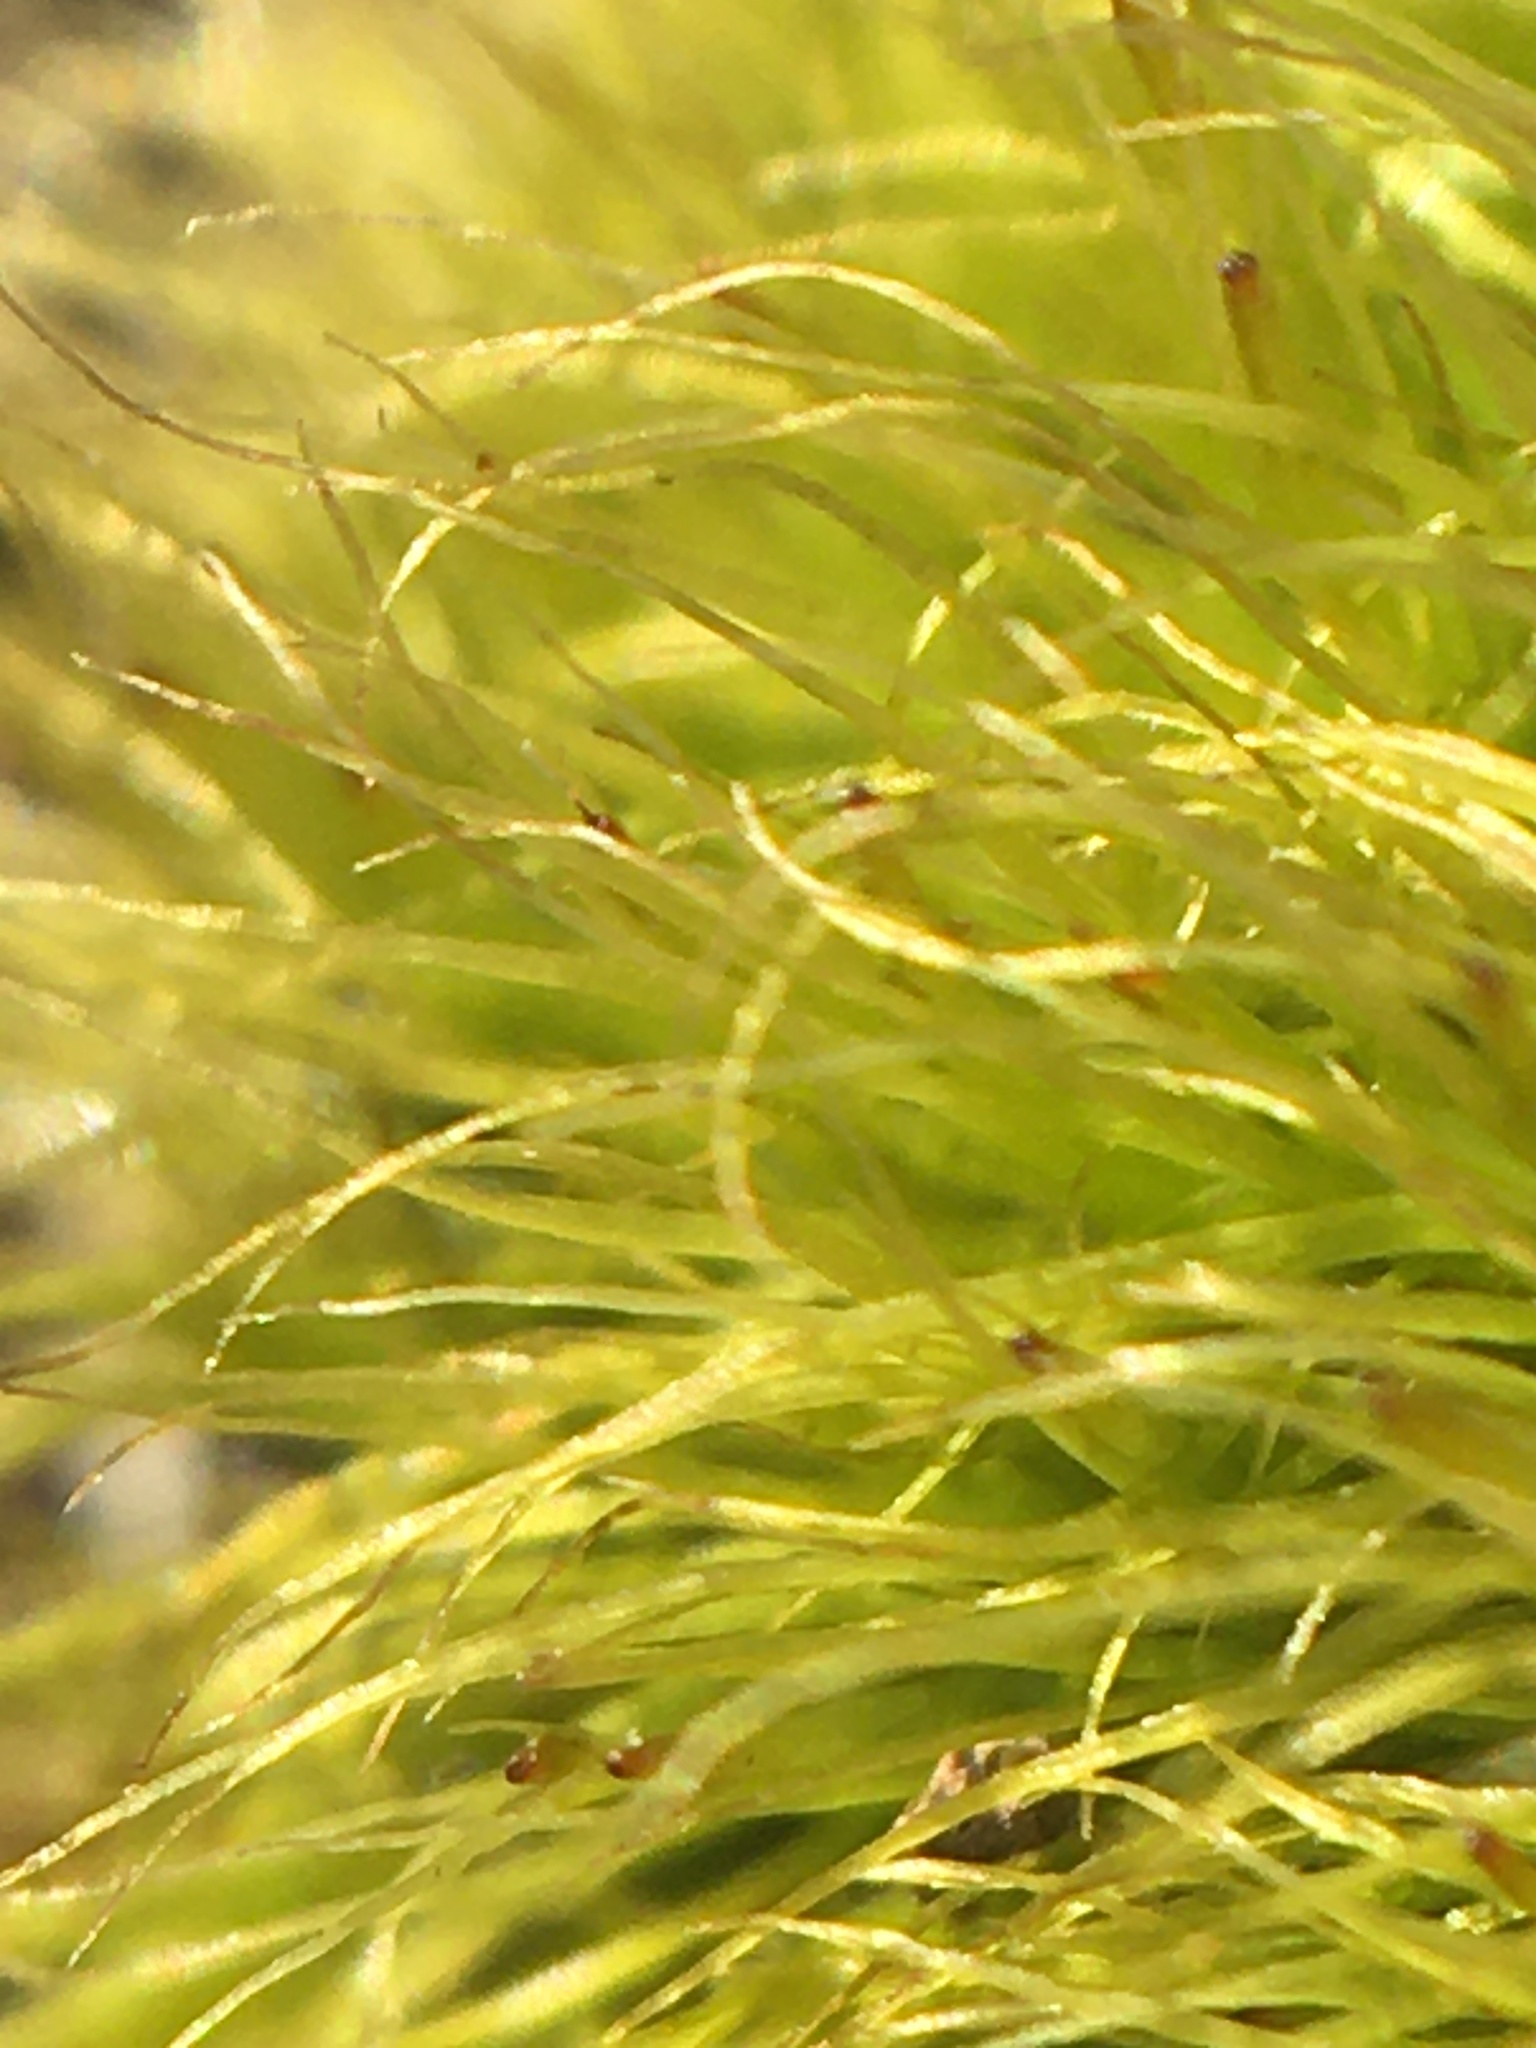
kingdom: Plantae
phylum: Bryophyta
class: Bryopsida
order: Dicranales
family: Dicranaceae
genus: Dicranum
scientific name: Dicranum scoparium
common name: Broom fork-moss
